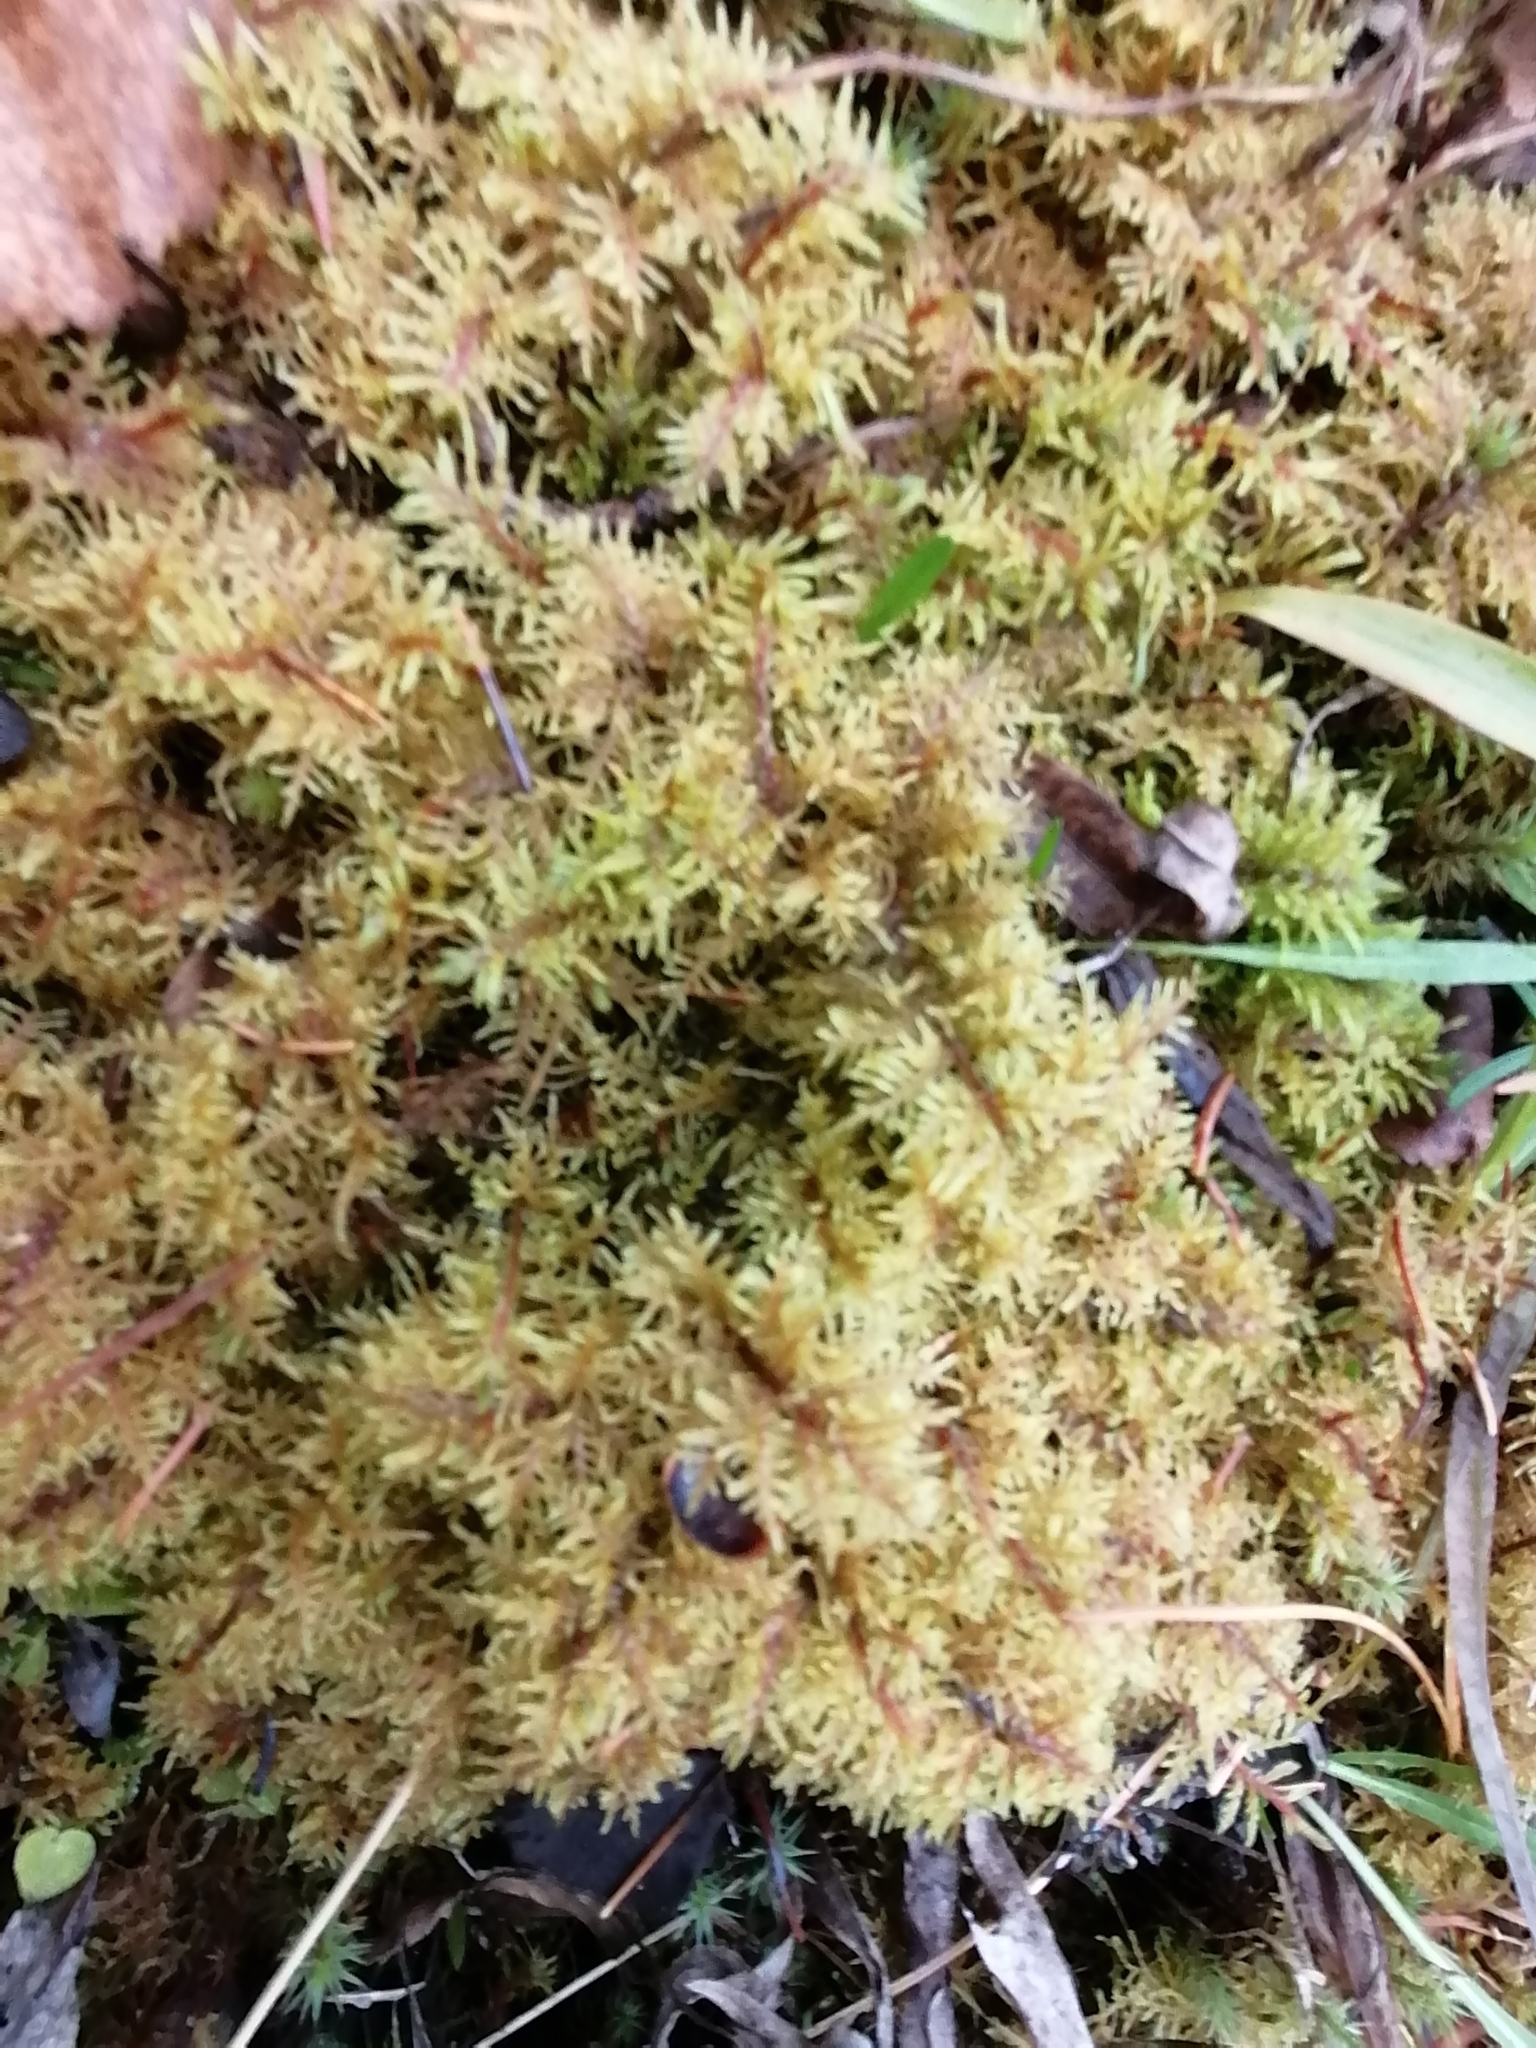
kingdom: Plantae
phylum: Bryophyta
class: Bryopsida
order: Hypnales
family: Hylocomiaceae
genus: Hylocomium
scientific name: Hylocomium splendens
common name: Stairstep moss
